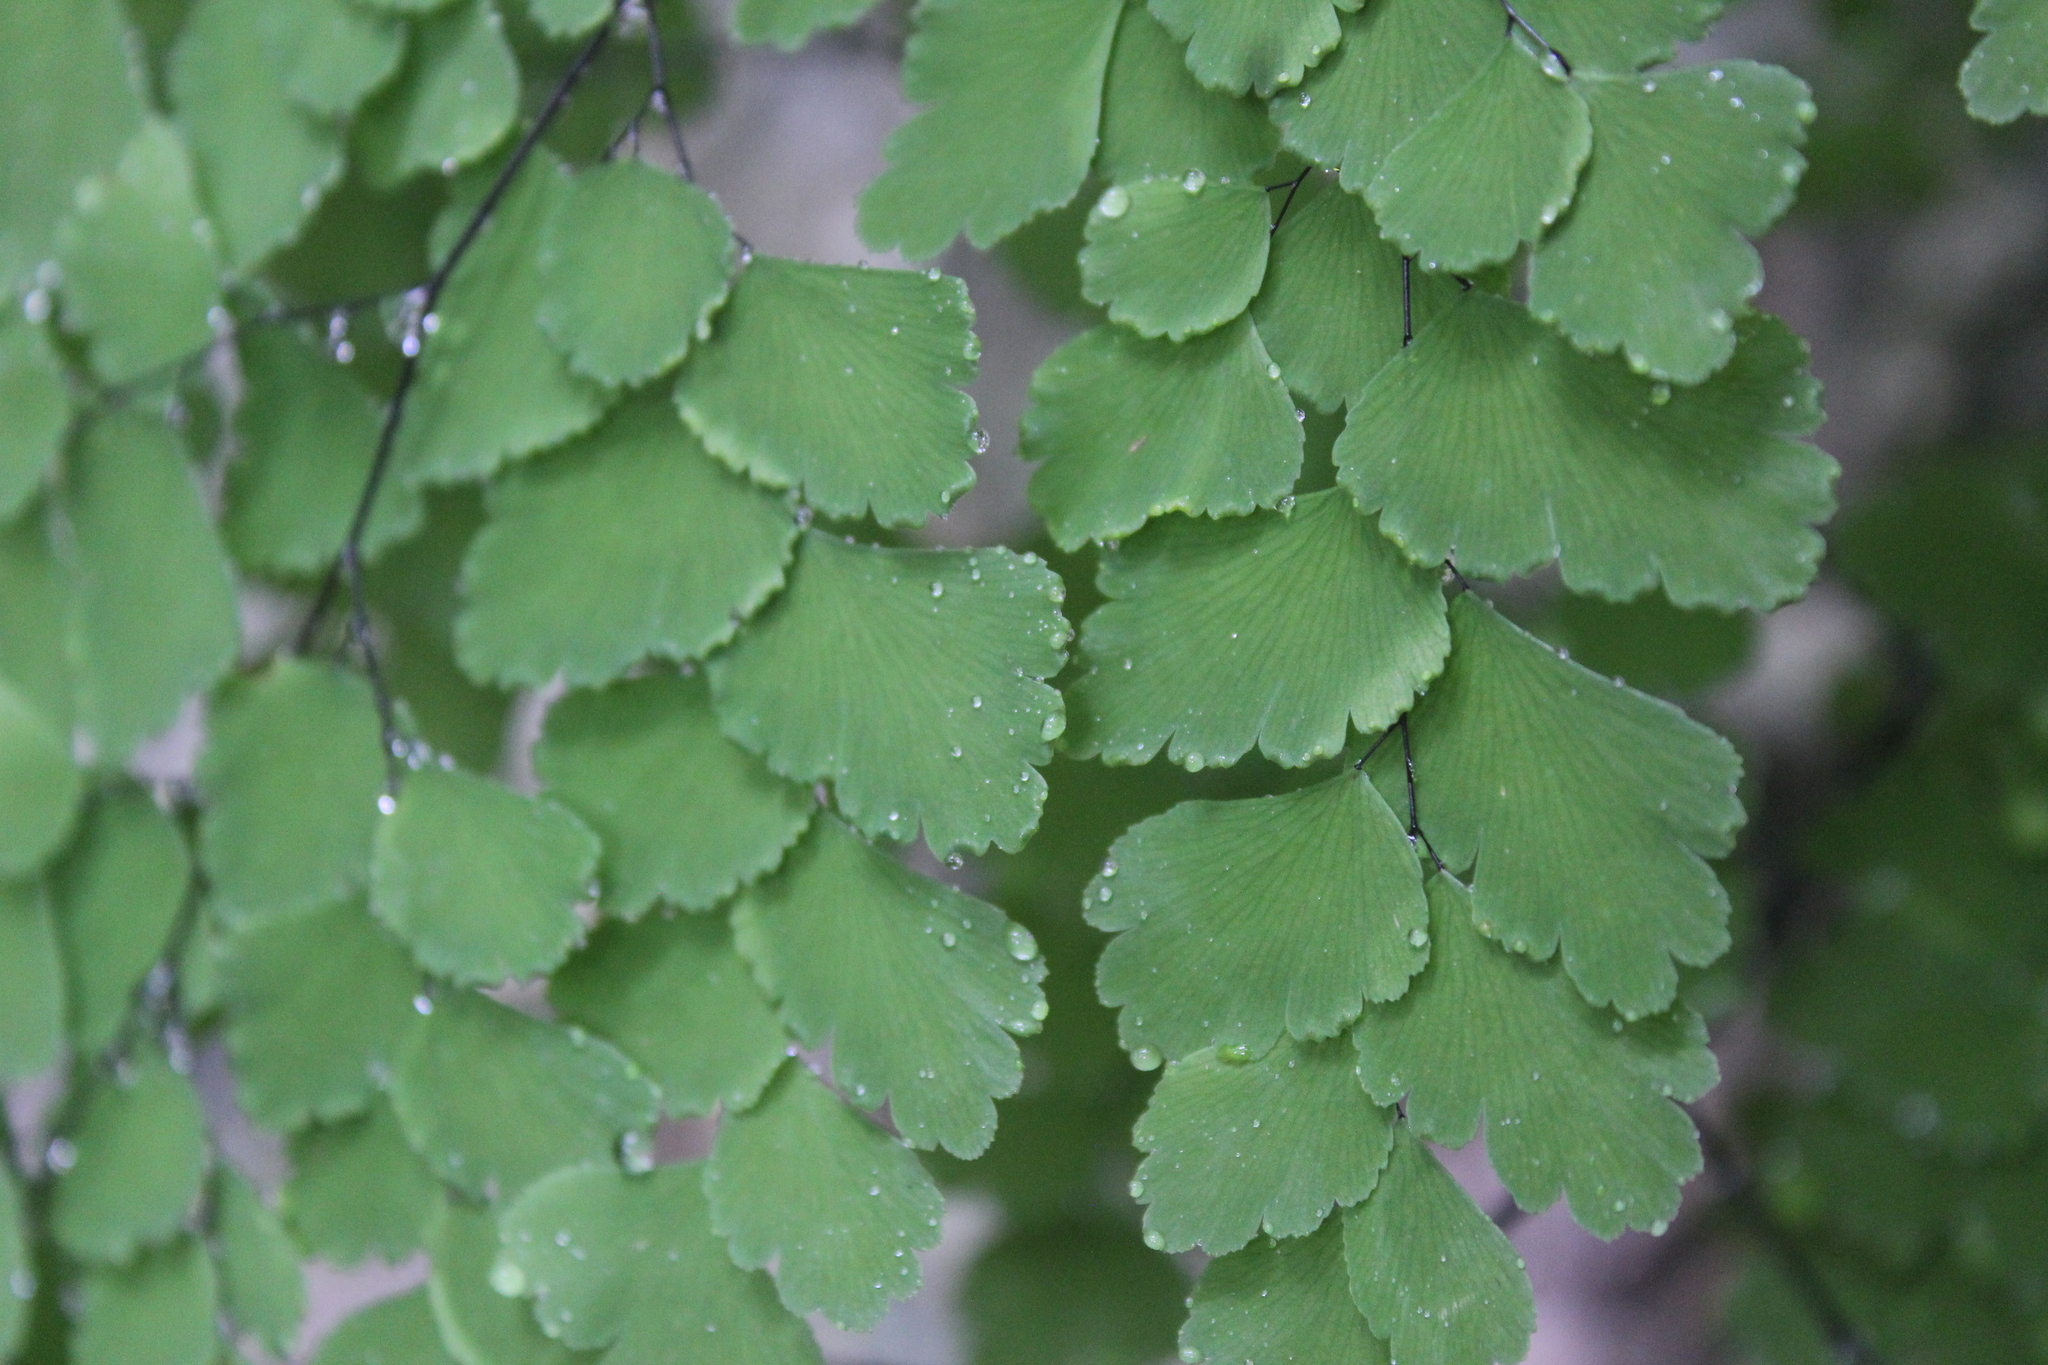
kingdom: Plantae
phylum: Tracheophyta
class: Polypodiopsida
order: Polypodiales
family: Pteridaceae
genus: Adiantum
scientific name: Adiantum tenerum
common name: Fan maidenhair
